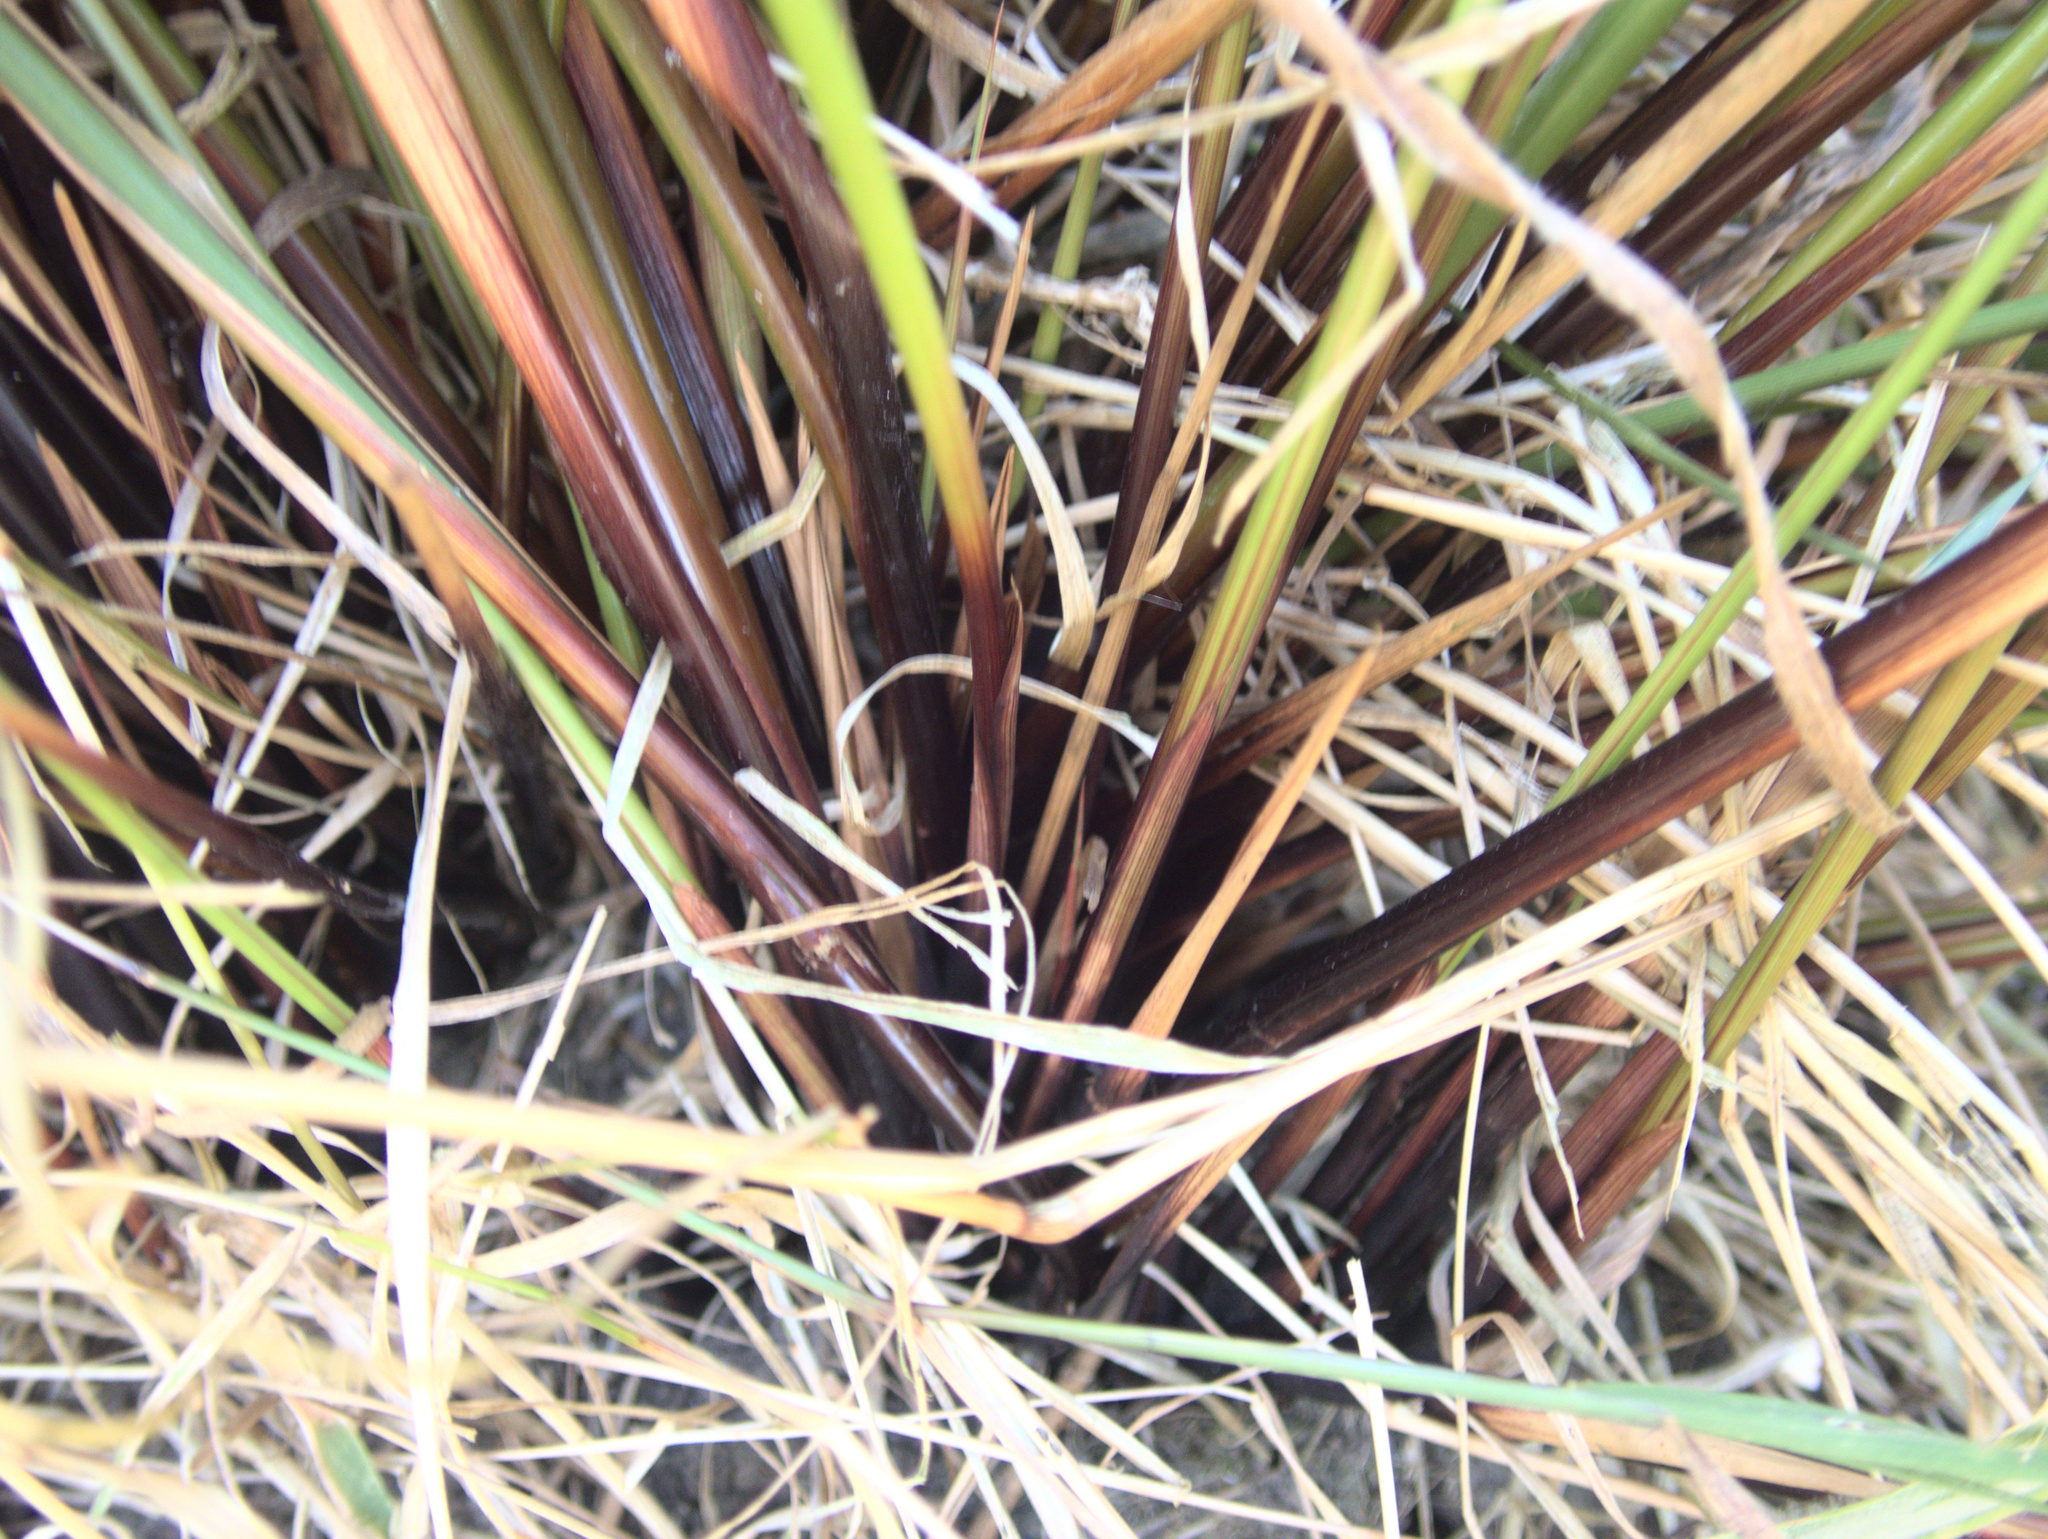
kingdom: Plantae
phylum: Tracheophyta
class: Liliopsida
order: Poales
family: Juncaceae
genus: Juncus
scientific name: Juncus sarophorus
